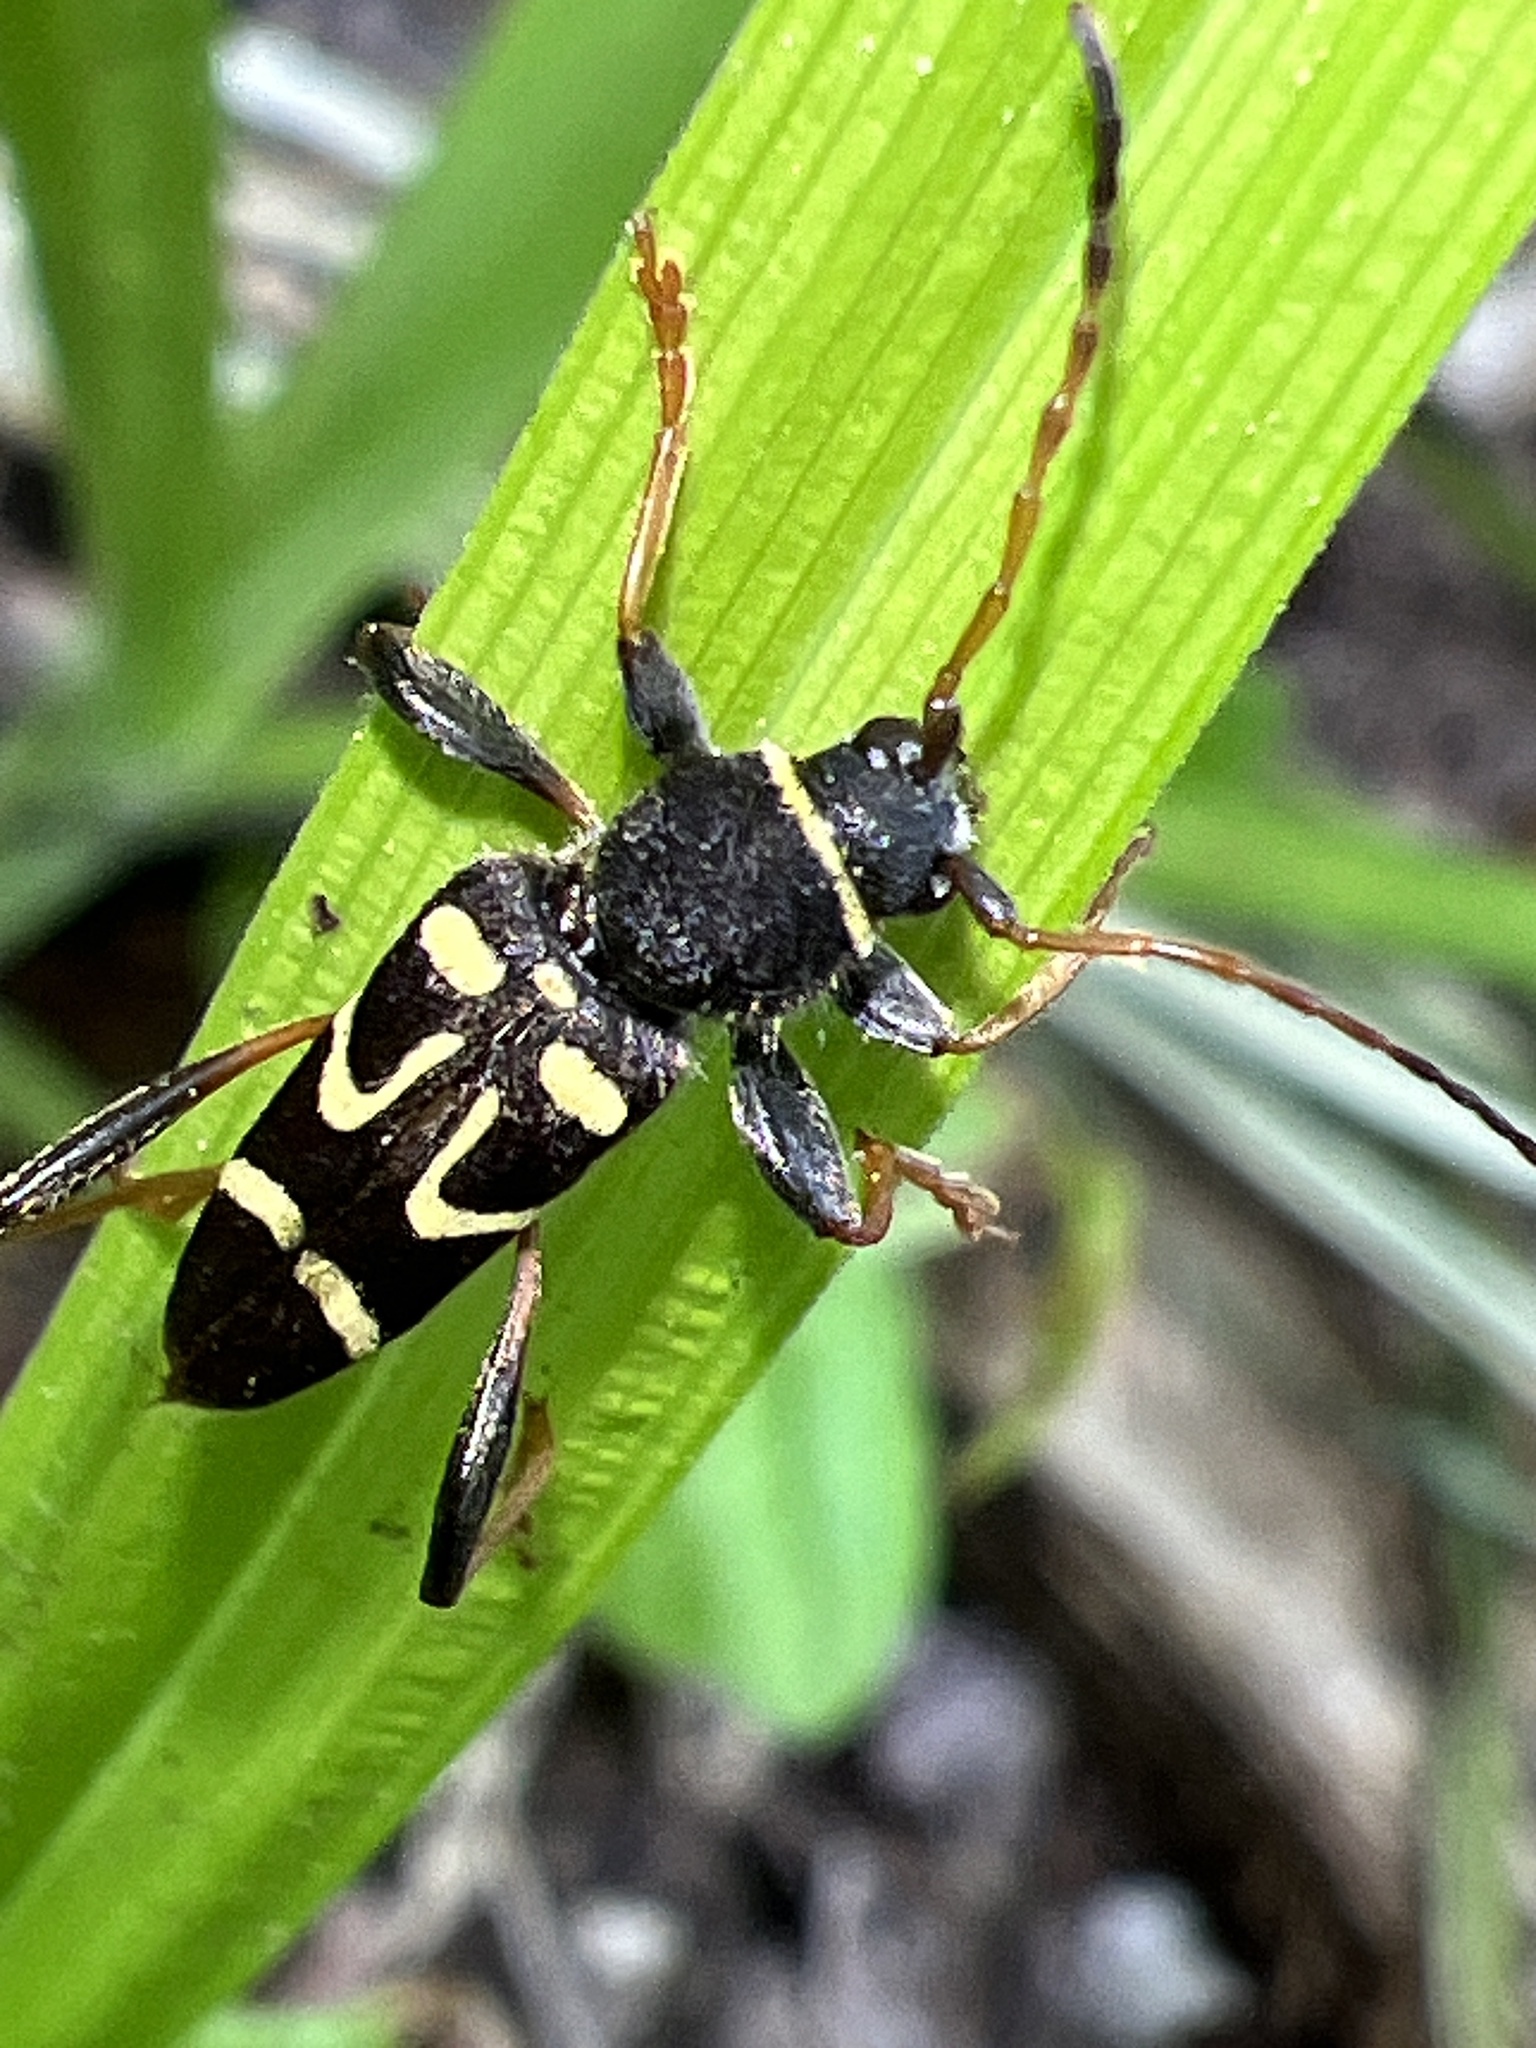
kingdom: Animalia
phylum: Arthropoda
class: Insecta
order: Coleoptera
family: Cerambycidae
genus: Clytus
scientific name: Clytus ruricola
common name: Round-necked longhorn beetle
